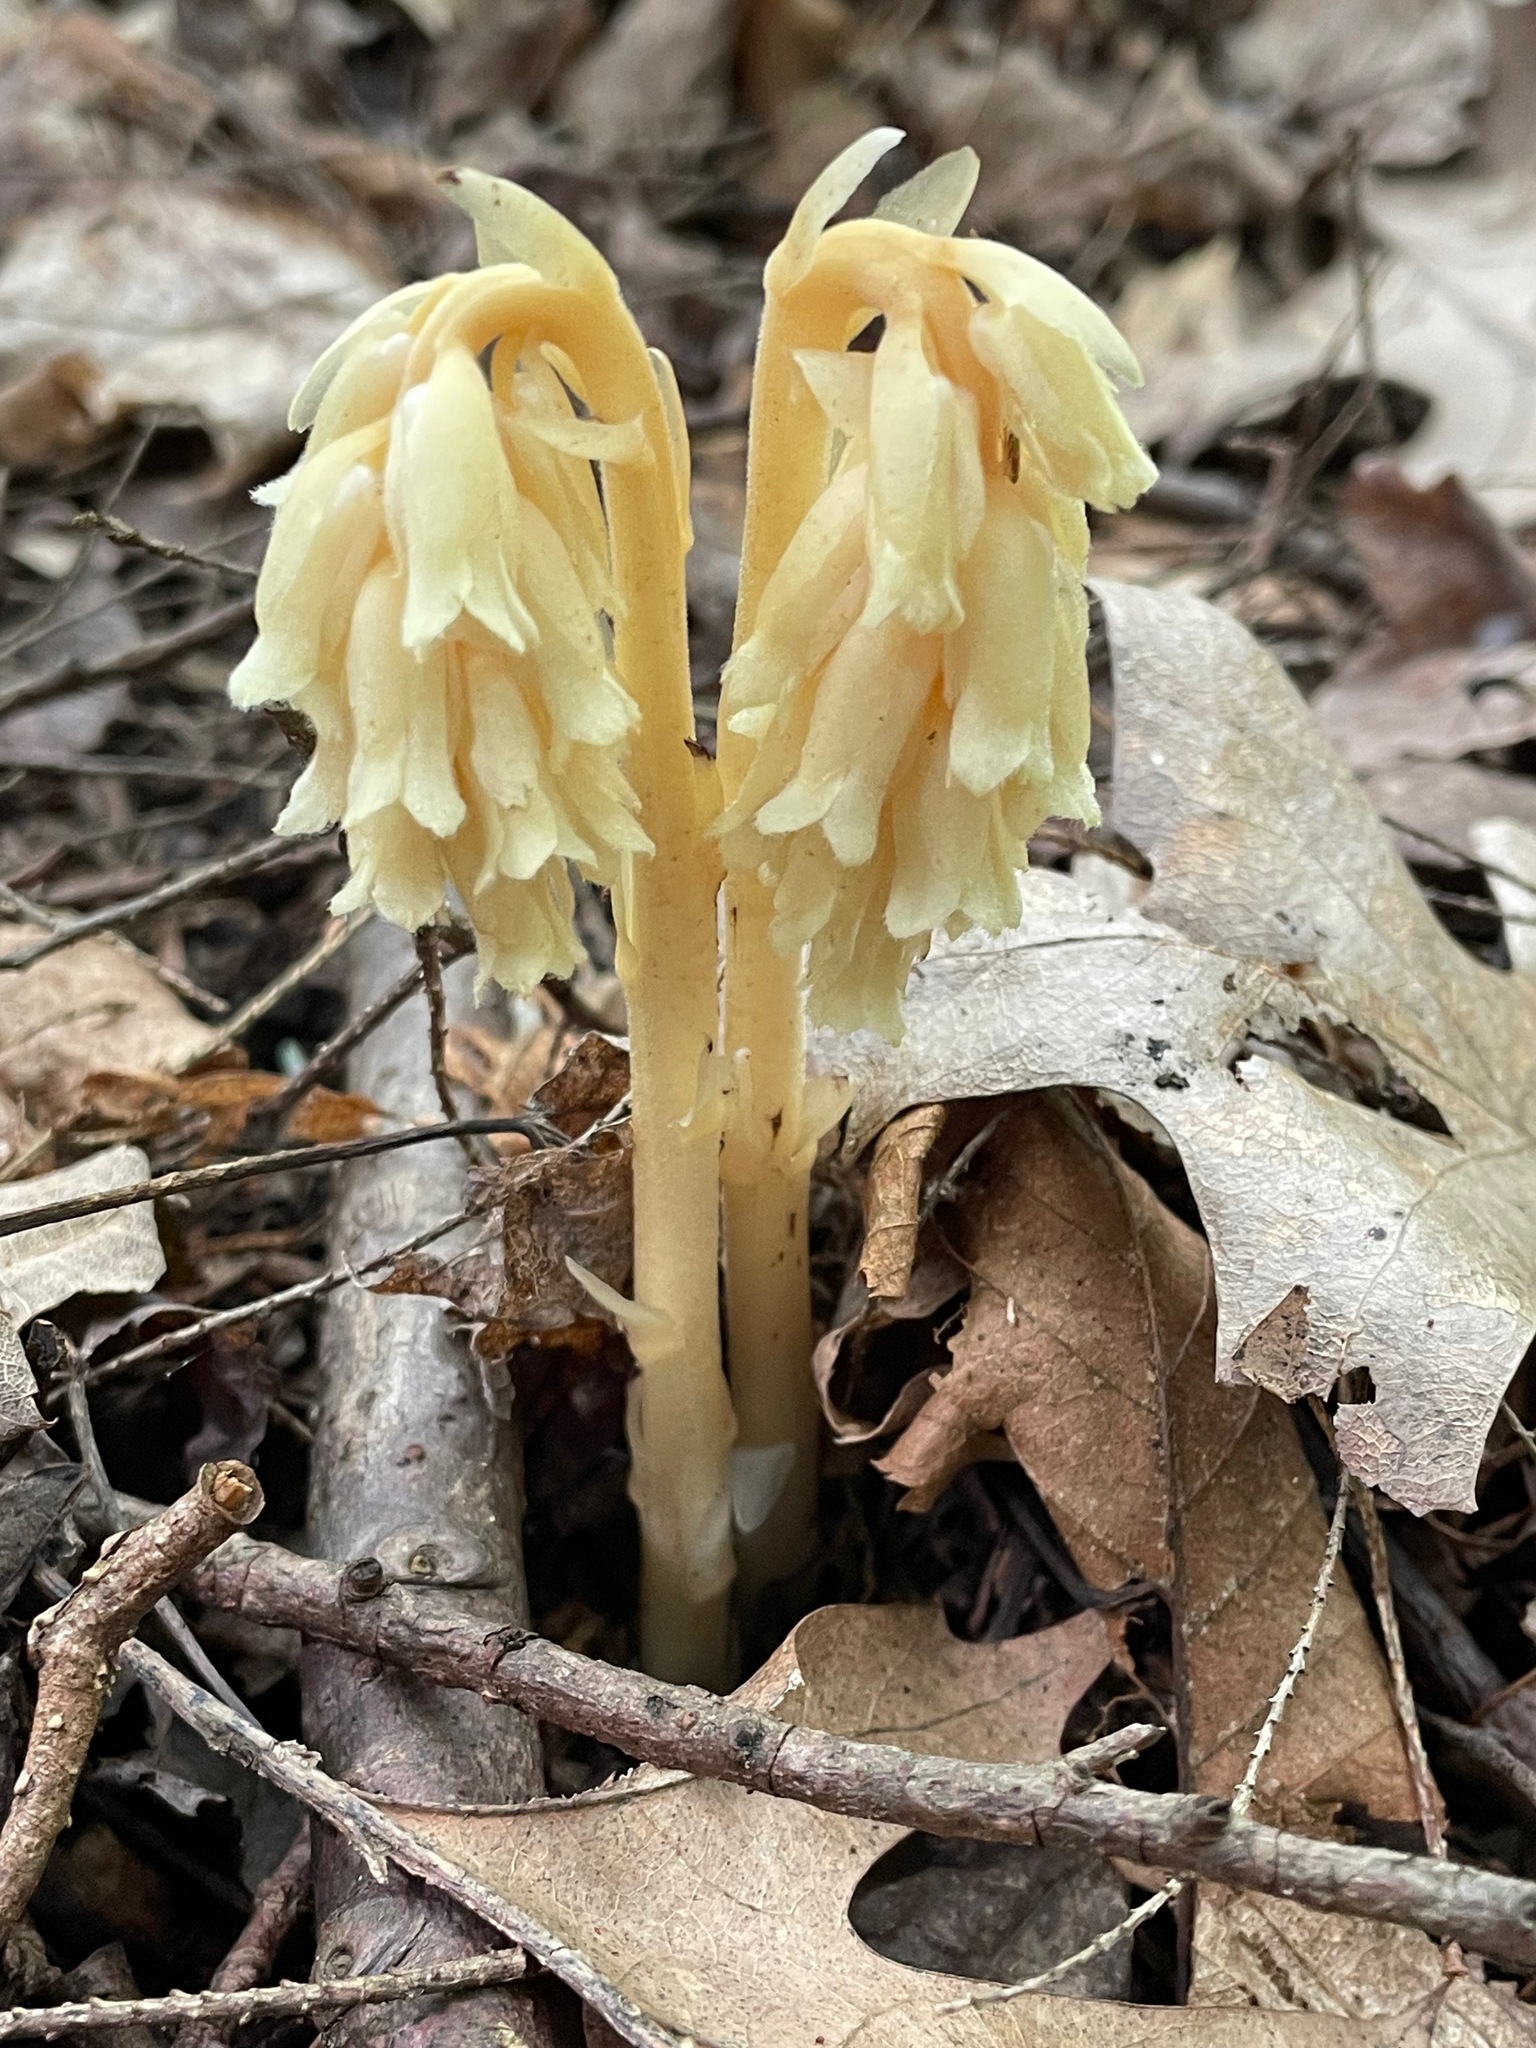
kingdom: Plantae
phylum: Tracheophyta
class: Magnoliopsida
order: Ericales
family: Ericaceae
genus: Hypopitys
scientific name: Hypopitys monotropa
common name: Yellow bird's-nest
